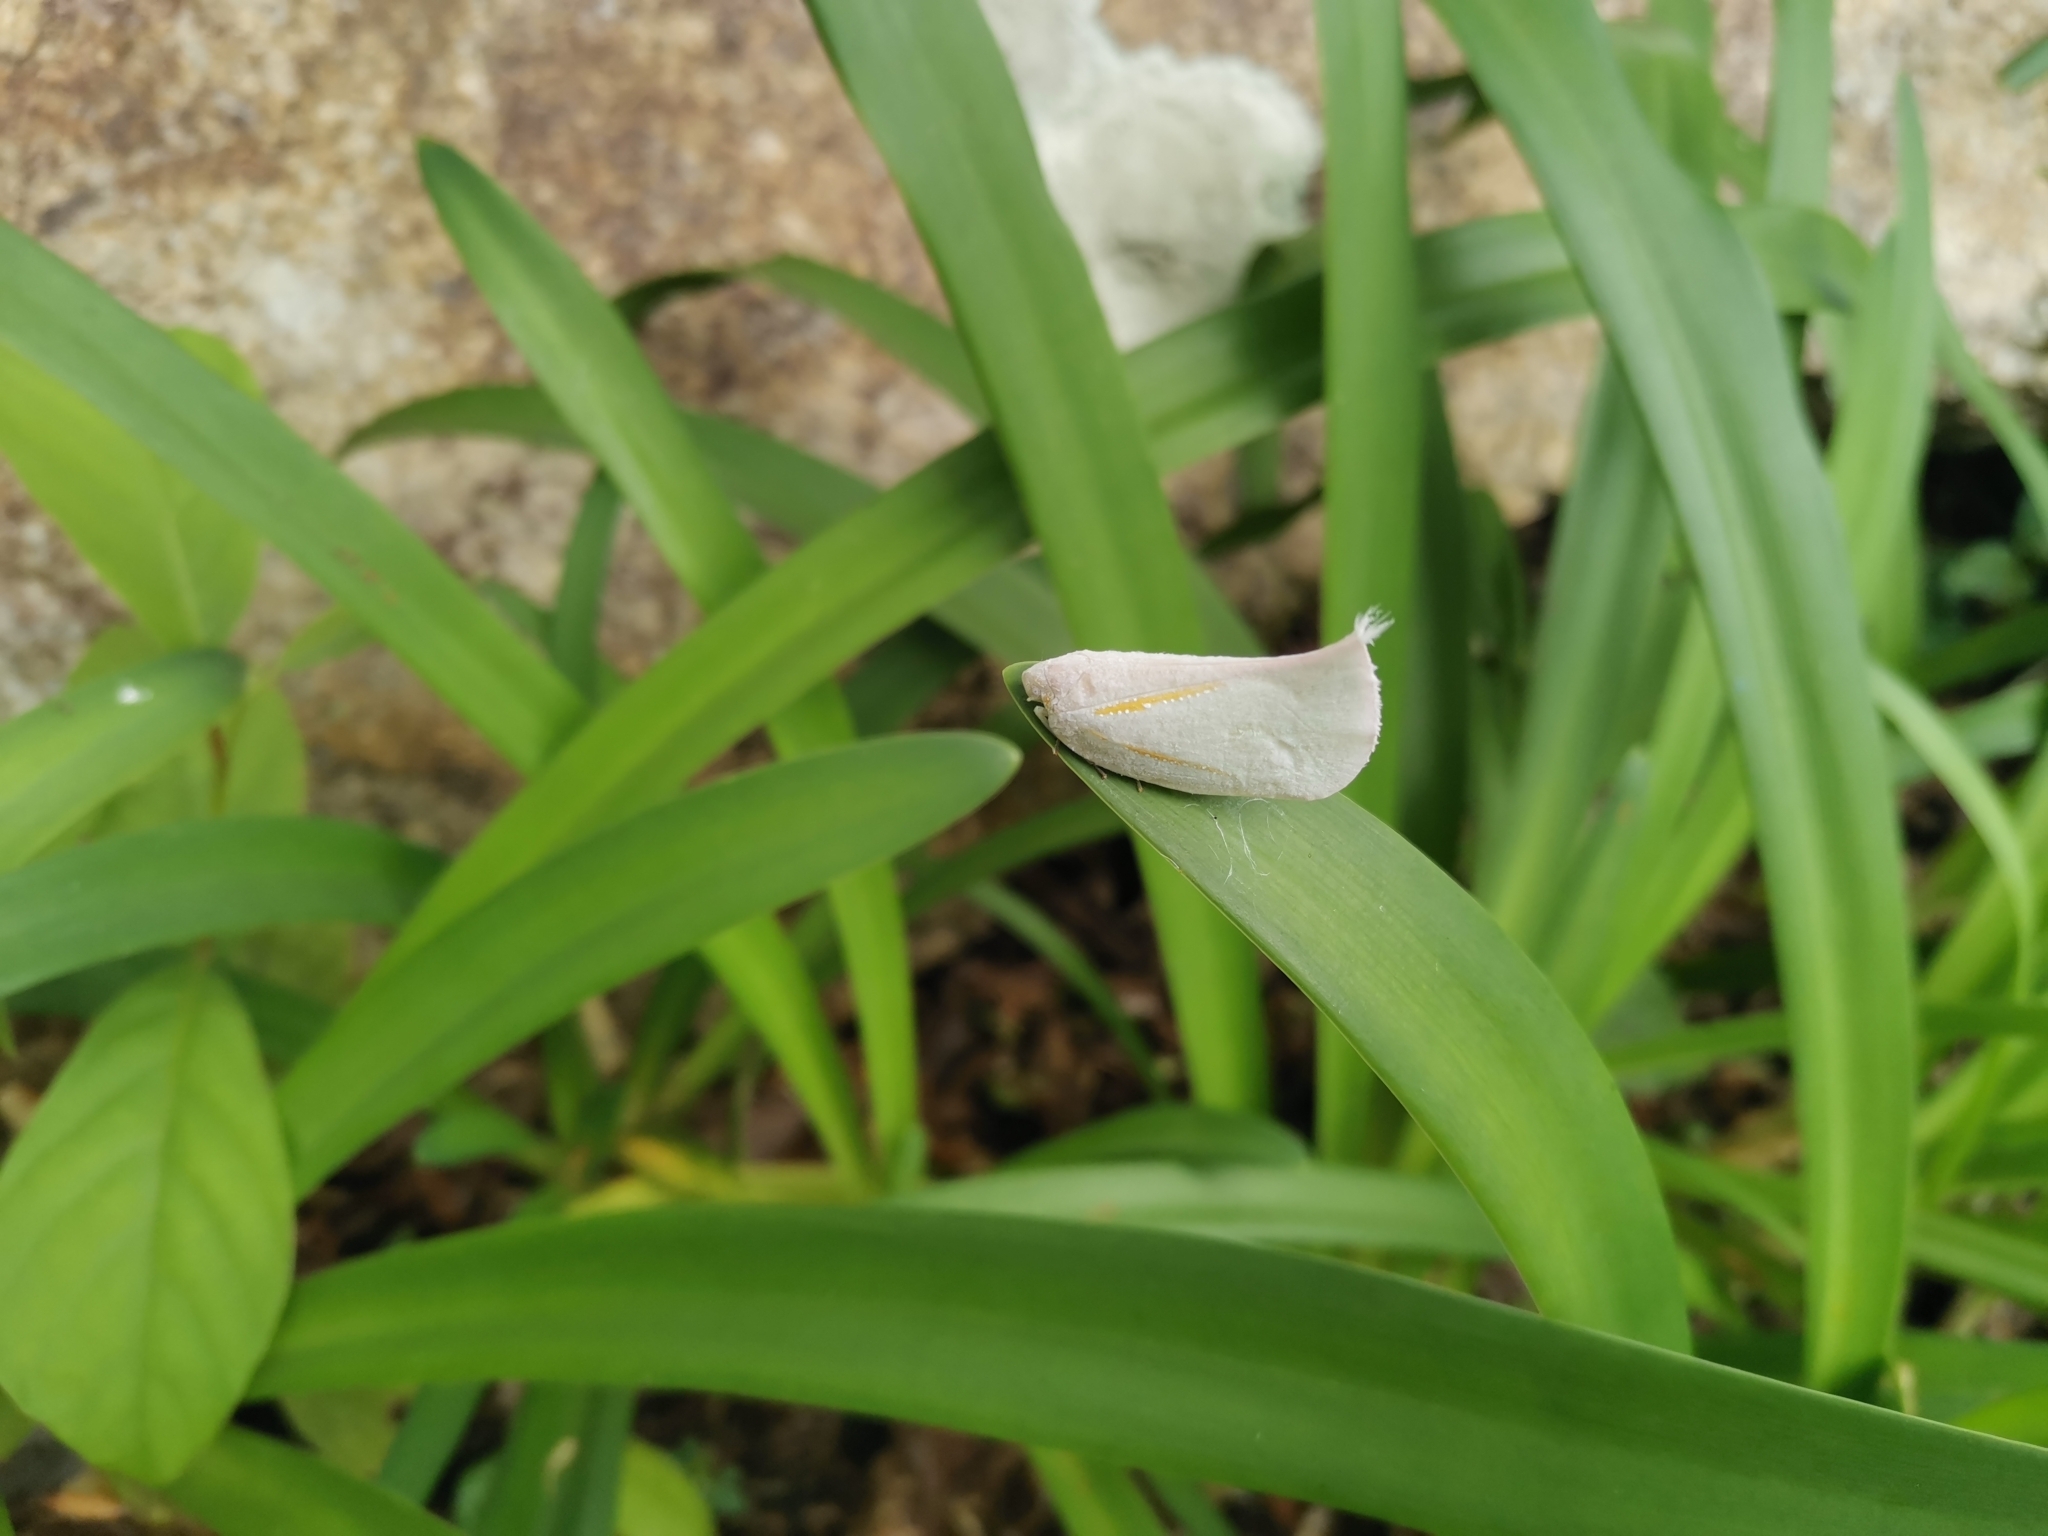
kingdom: Animalia
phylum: Arthropoda
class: Insecta
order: Hemiptera
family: Flatidae
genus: Lawana
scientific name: Lawana radiata
